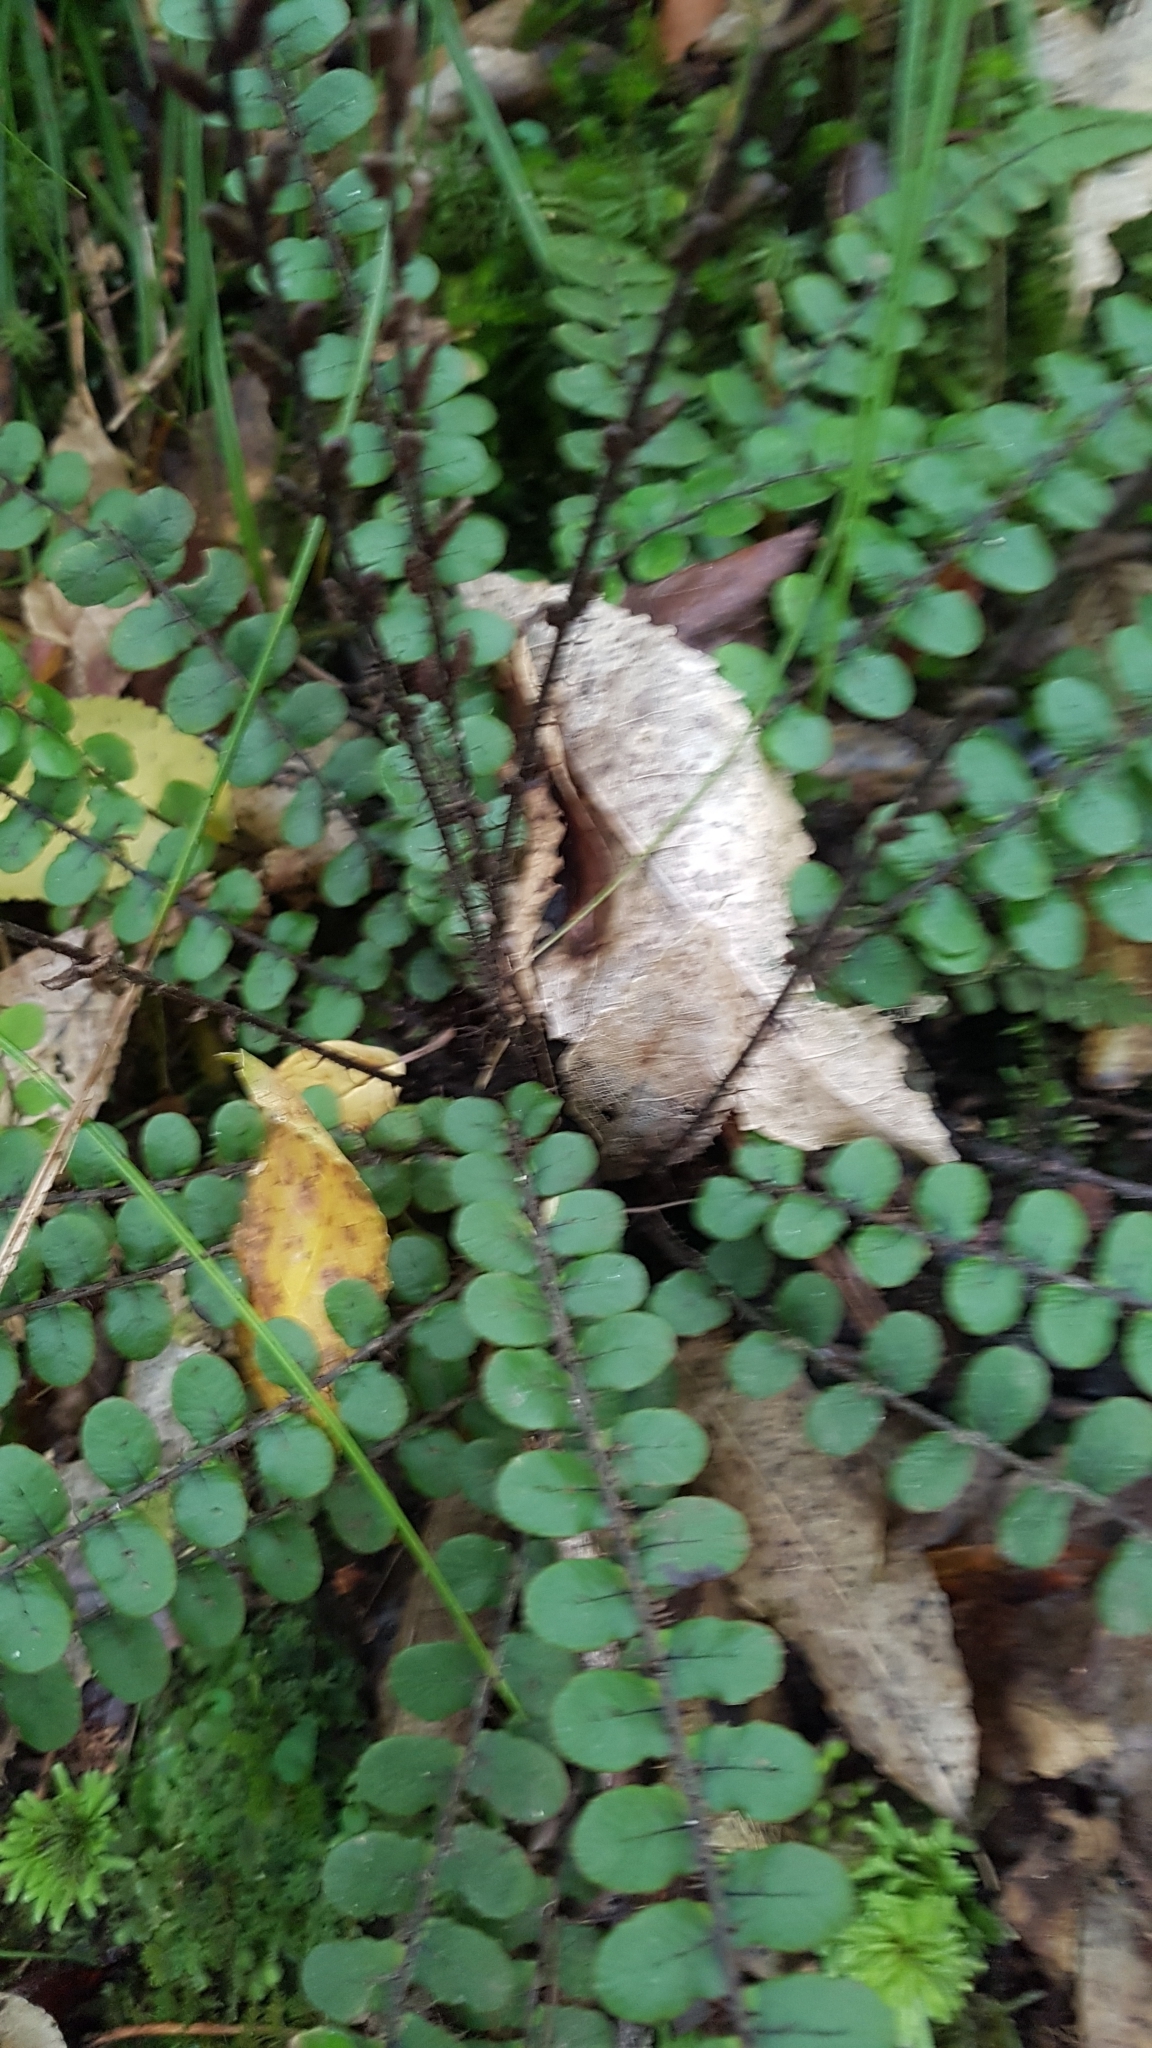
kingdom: Plantae
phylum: Tracheophyta
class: Polypodiopsida
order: Polypodiales
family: Blechnaceae
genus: Cranfillia
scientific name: Cranfillia fluviatilis
